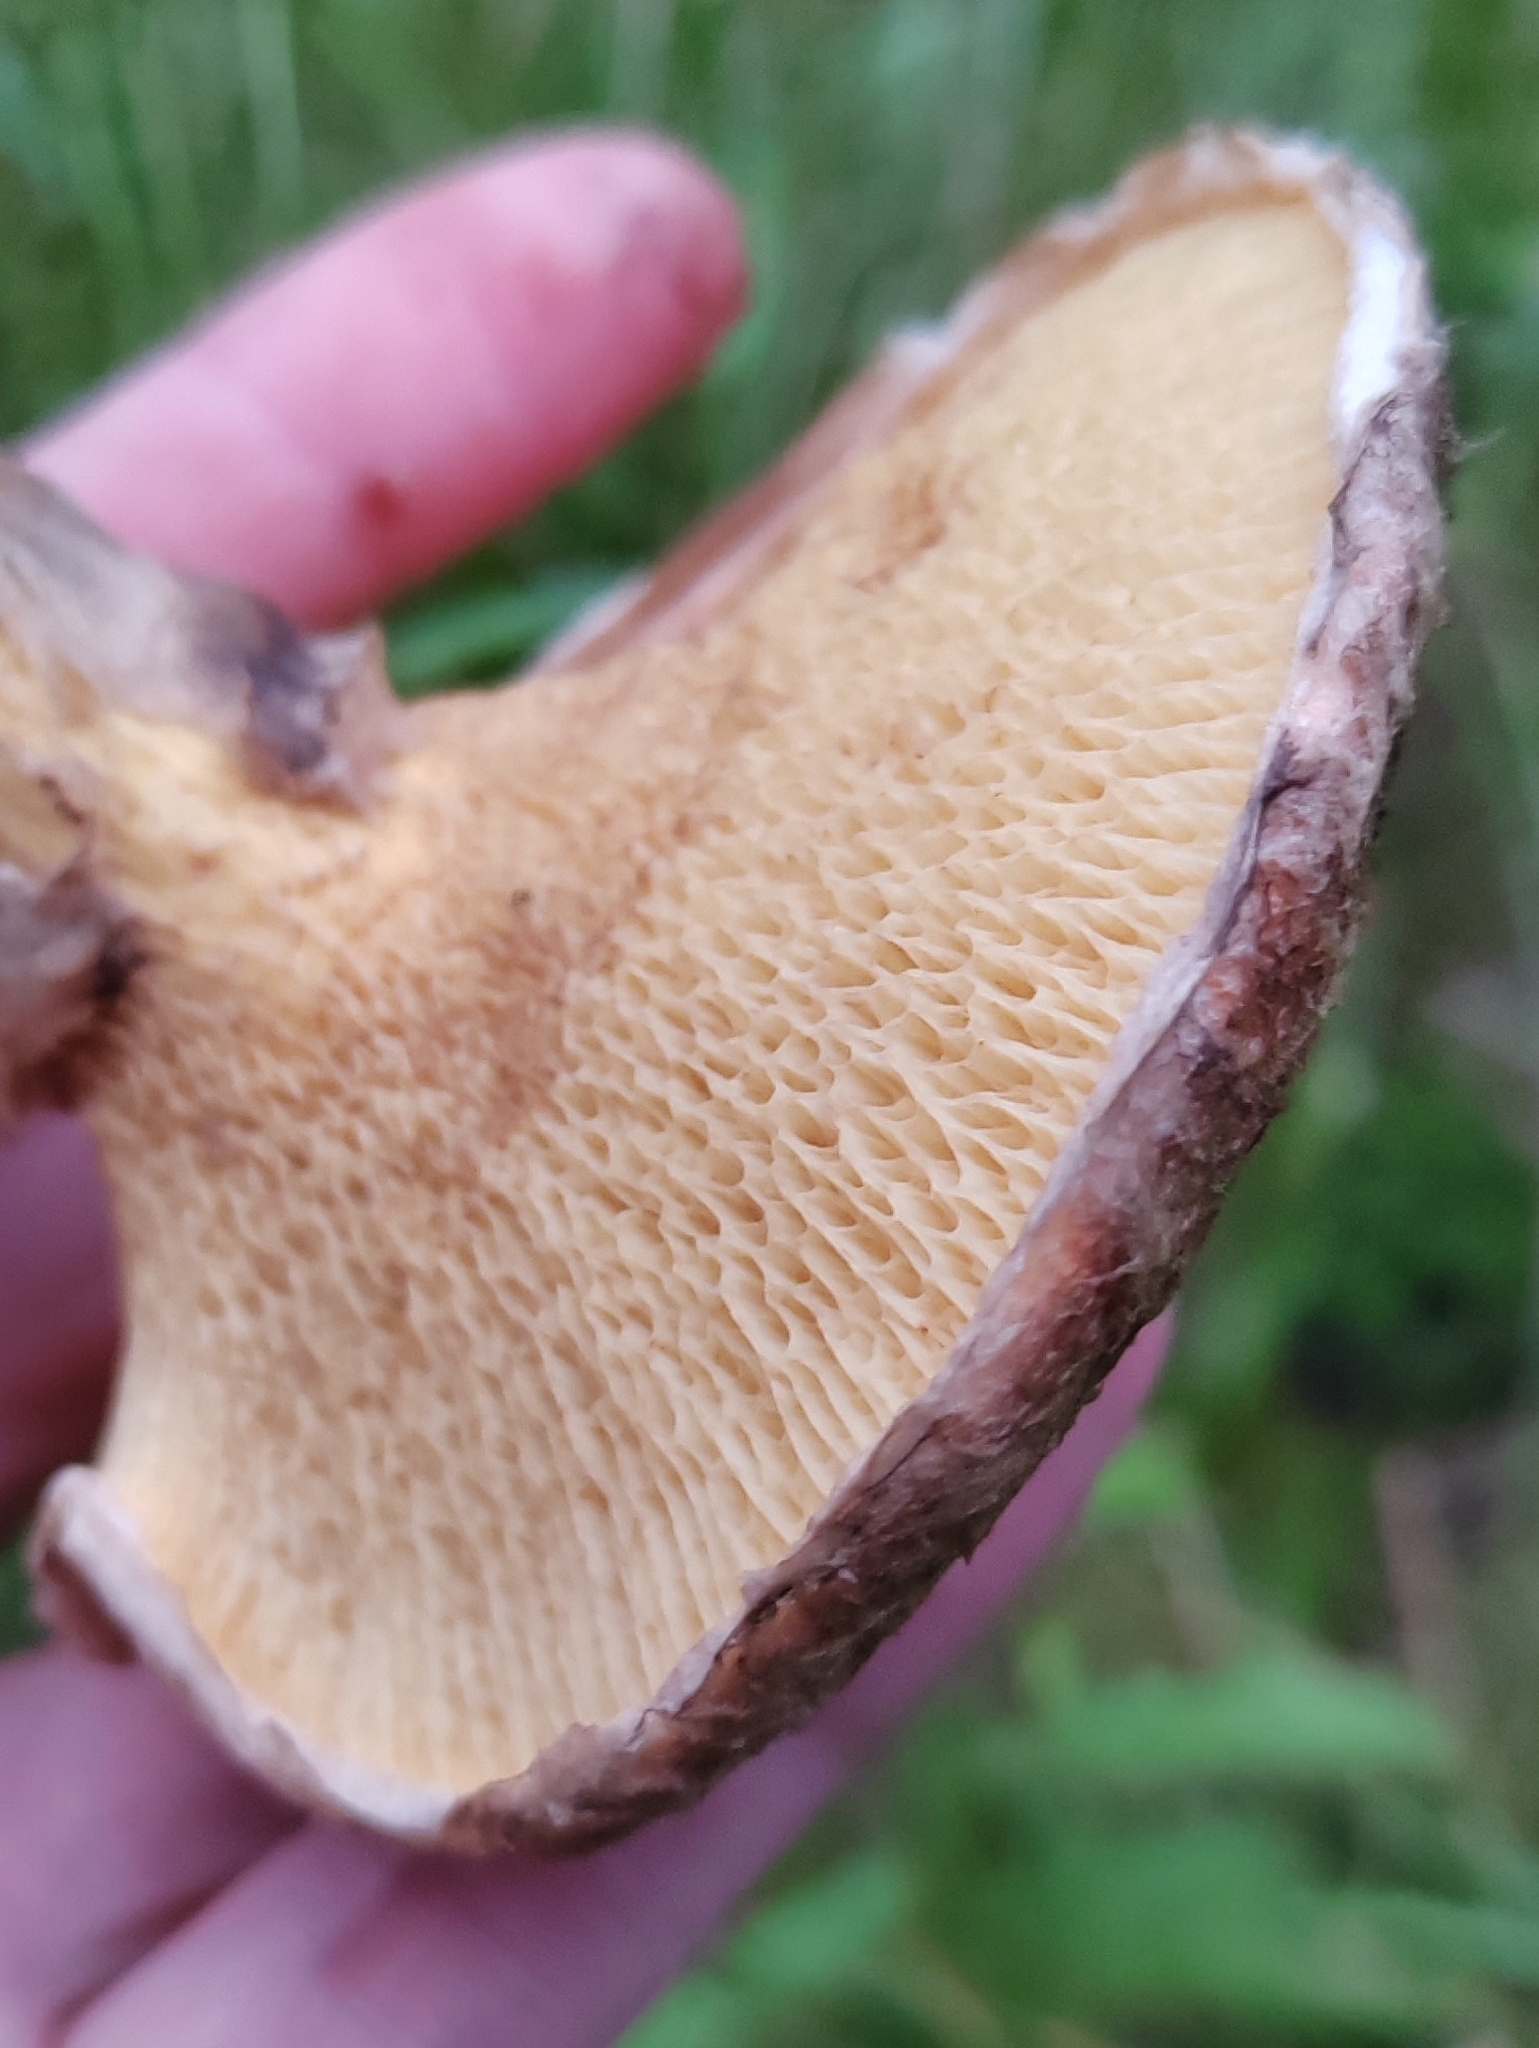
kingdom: Fungi
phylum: Basidiomycota
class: Agaricomycetes
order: Boletales
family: Suillaceae
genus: Suillus
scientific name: Suillus spraguei
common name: Painted suillus
